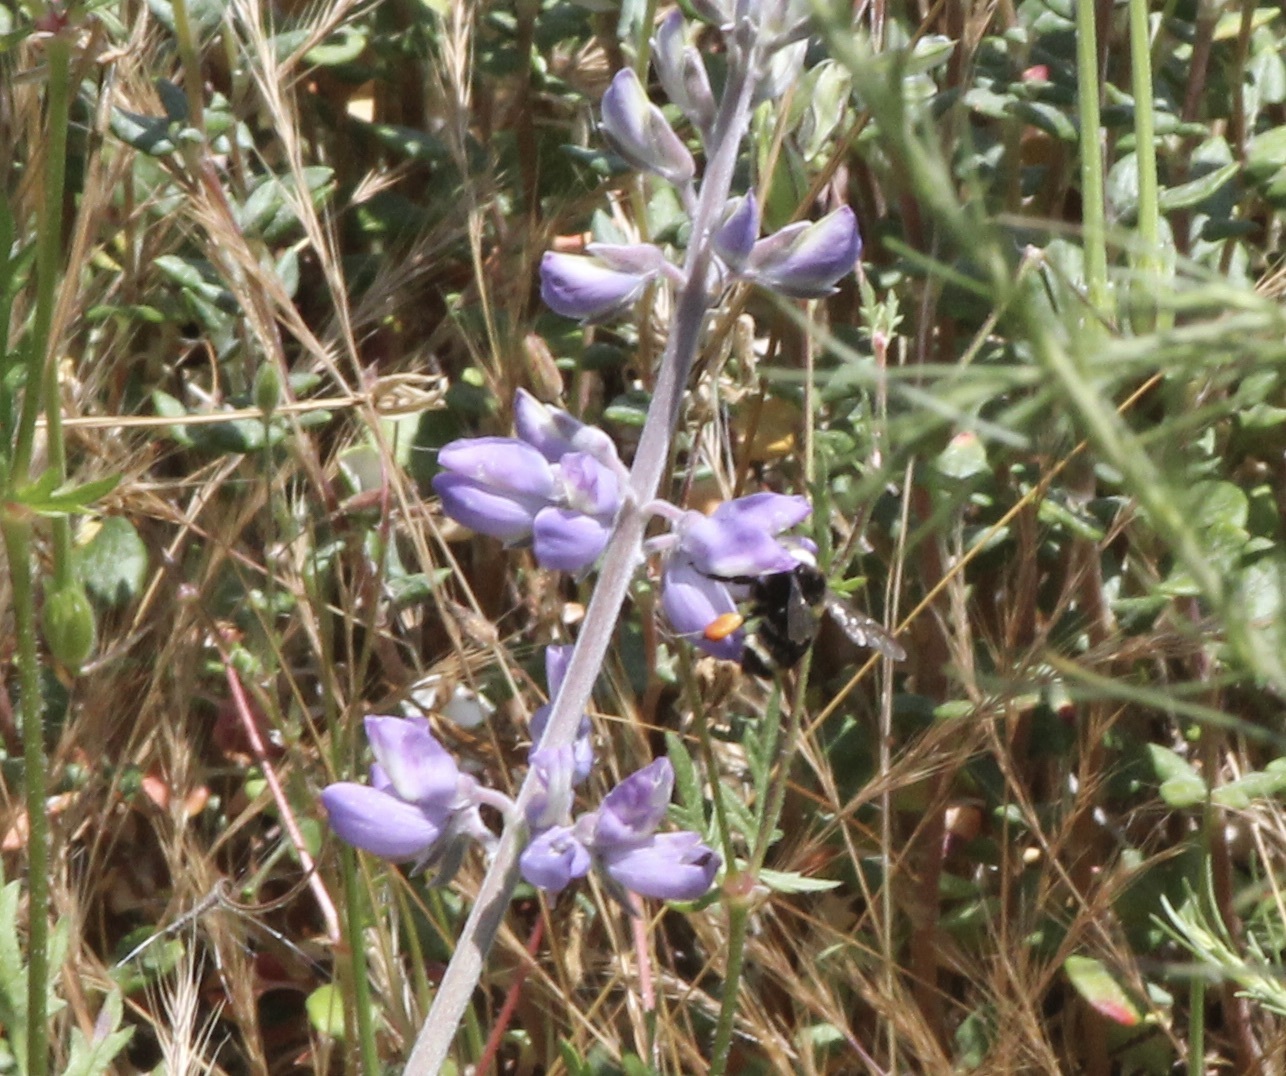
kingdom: Animalia
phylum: Arthropoda
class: Insecta
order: Hymenoptera
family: Apidae
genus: Bombus
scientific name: Bombus californicus
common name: California bumble bee
